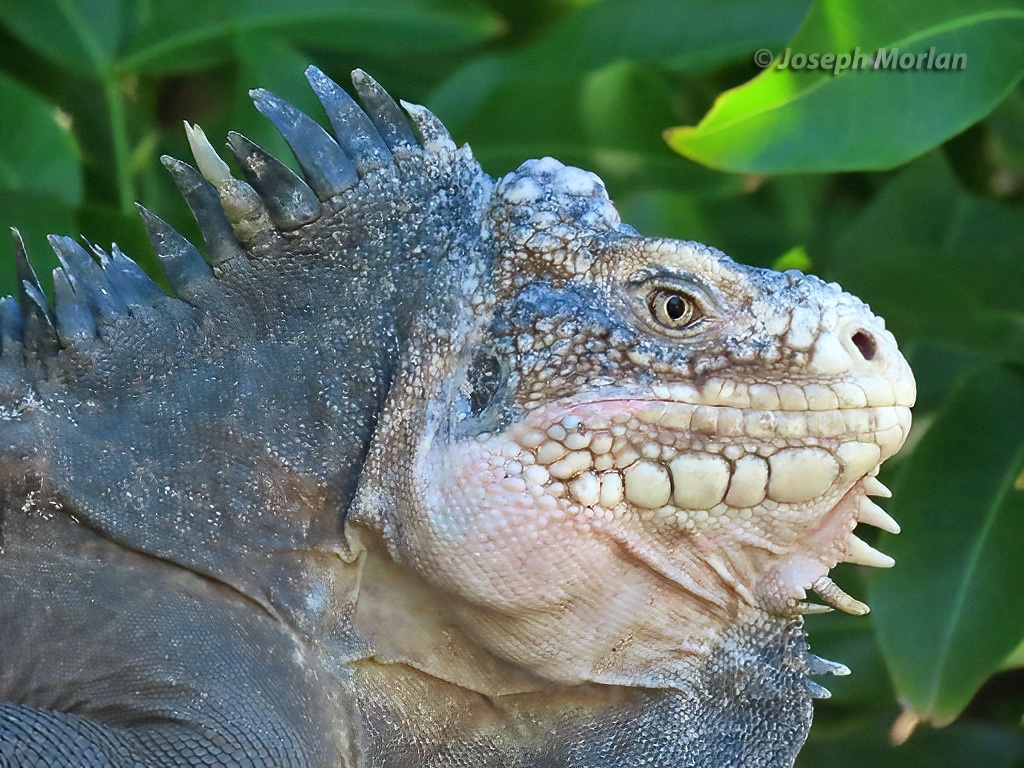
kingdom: Animalia
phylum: Chordata
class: Squamata
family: Iguanidae
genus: Iguana
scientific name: Iguana delicatissima
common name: West indian iguana
